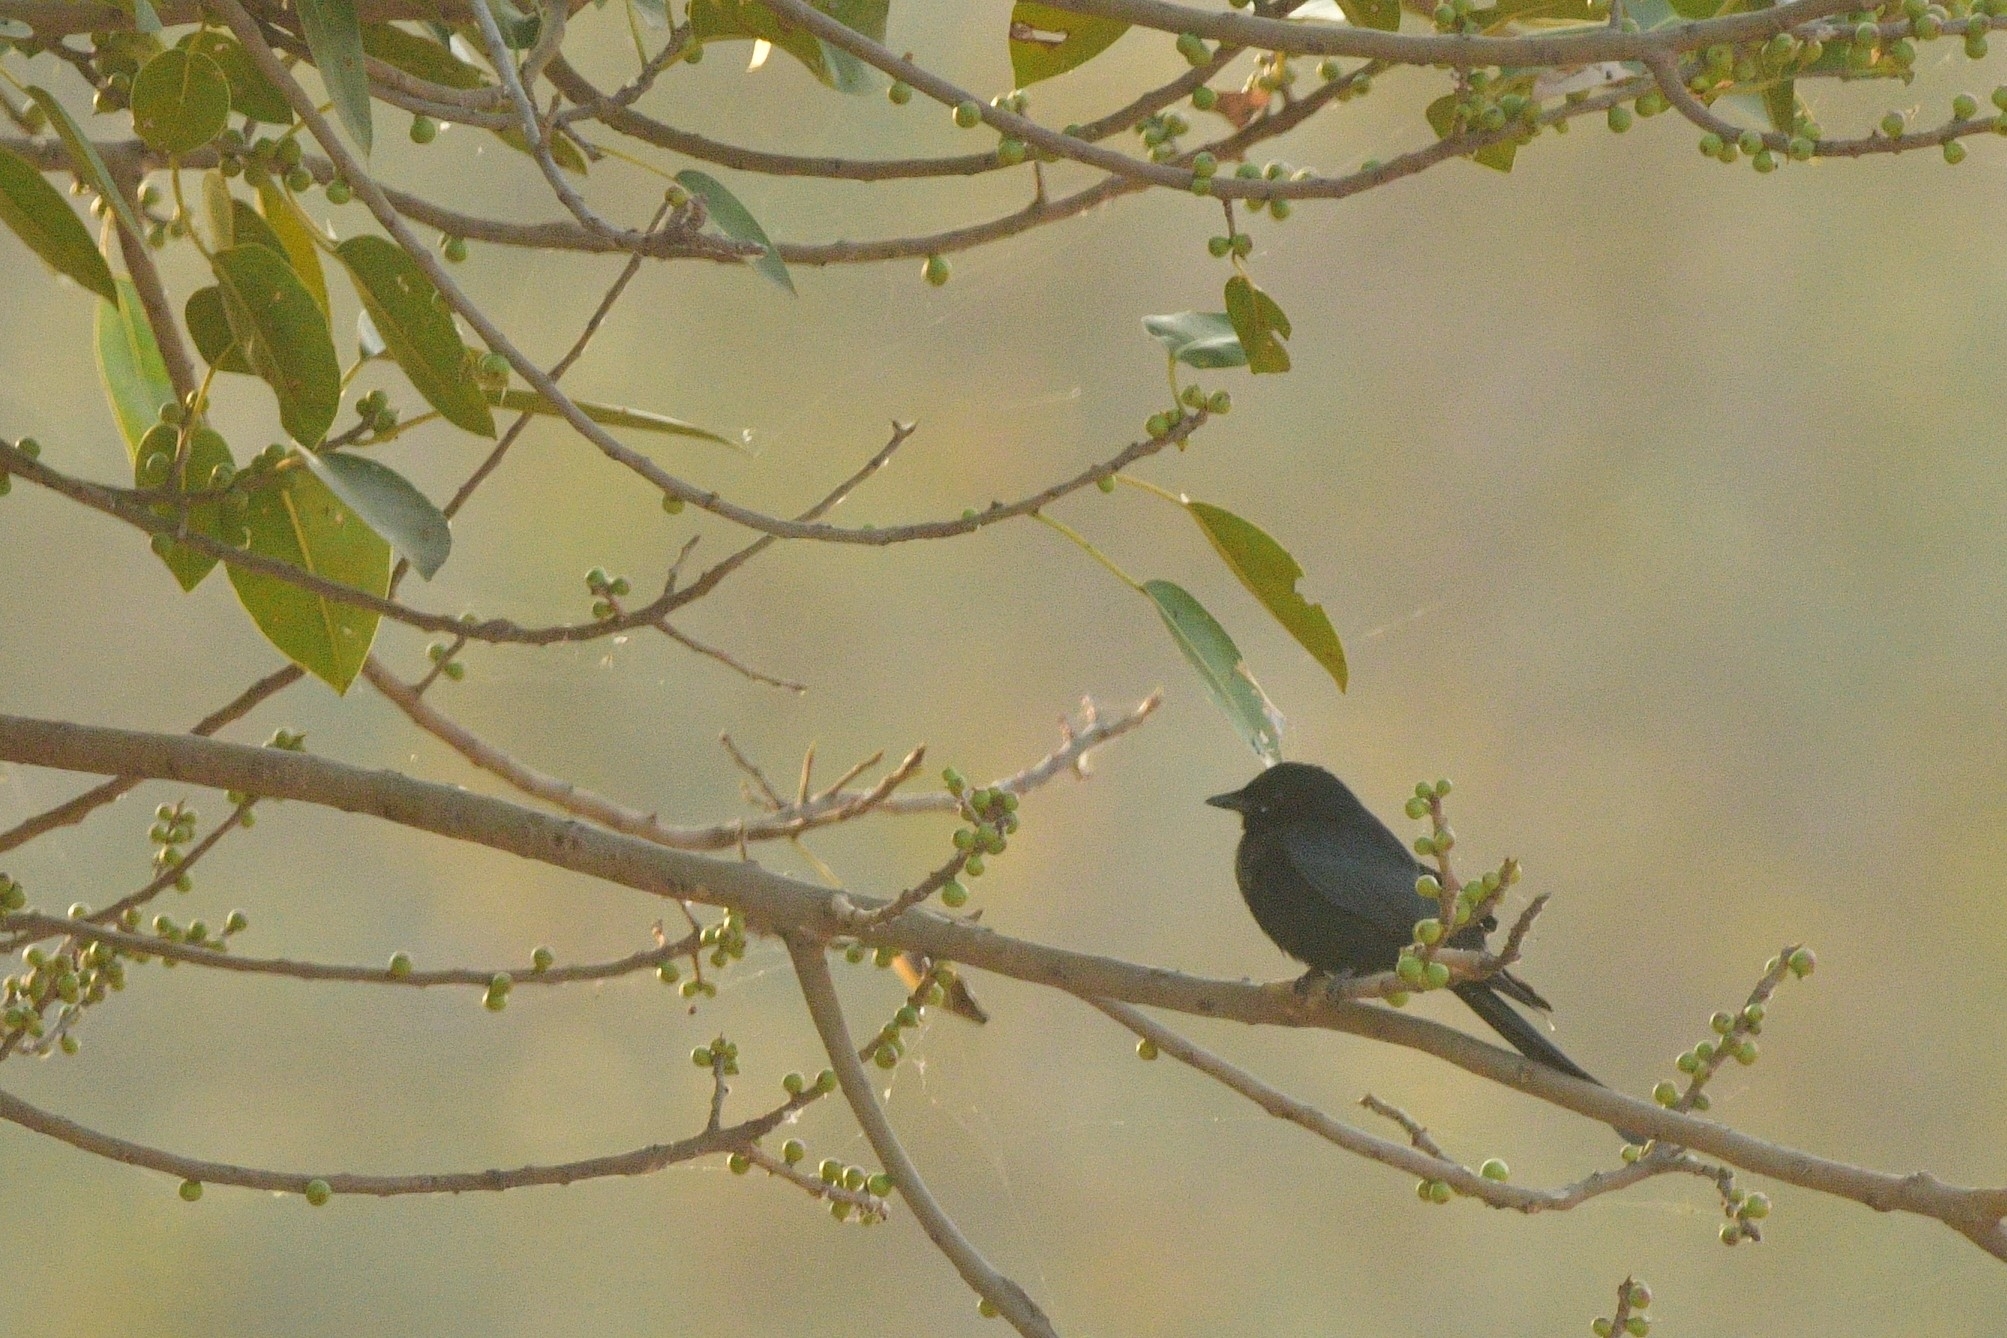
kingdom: Animalia
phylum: Chordata
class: Aves
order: Passeriformes
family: Dicruridae
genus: Dicrurus
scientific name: Dicrurus macrocercus
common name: Black drongo
